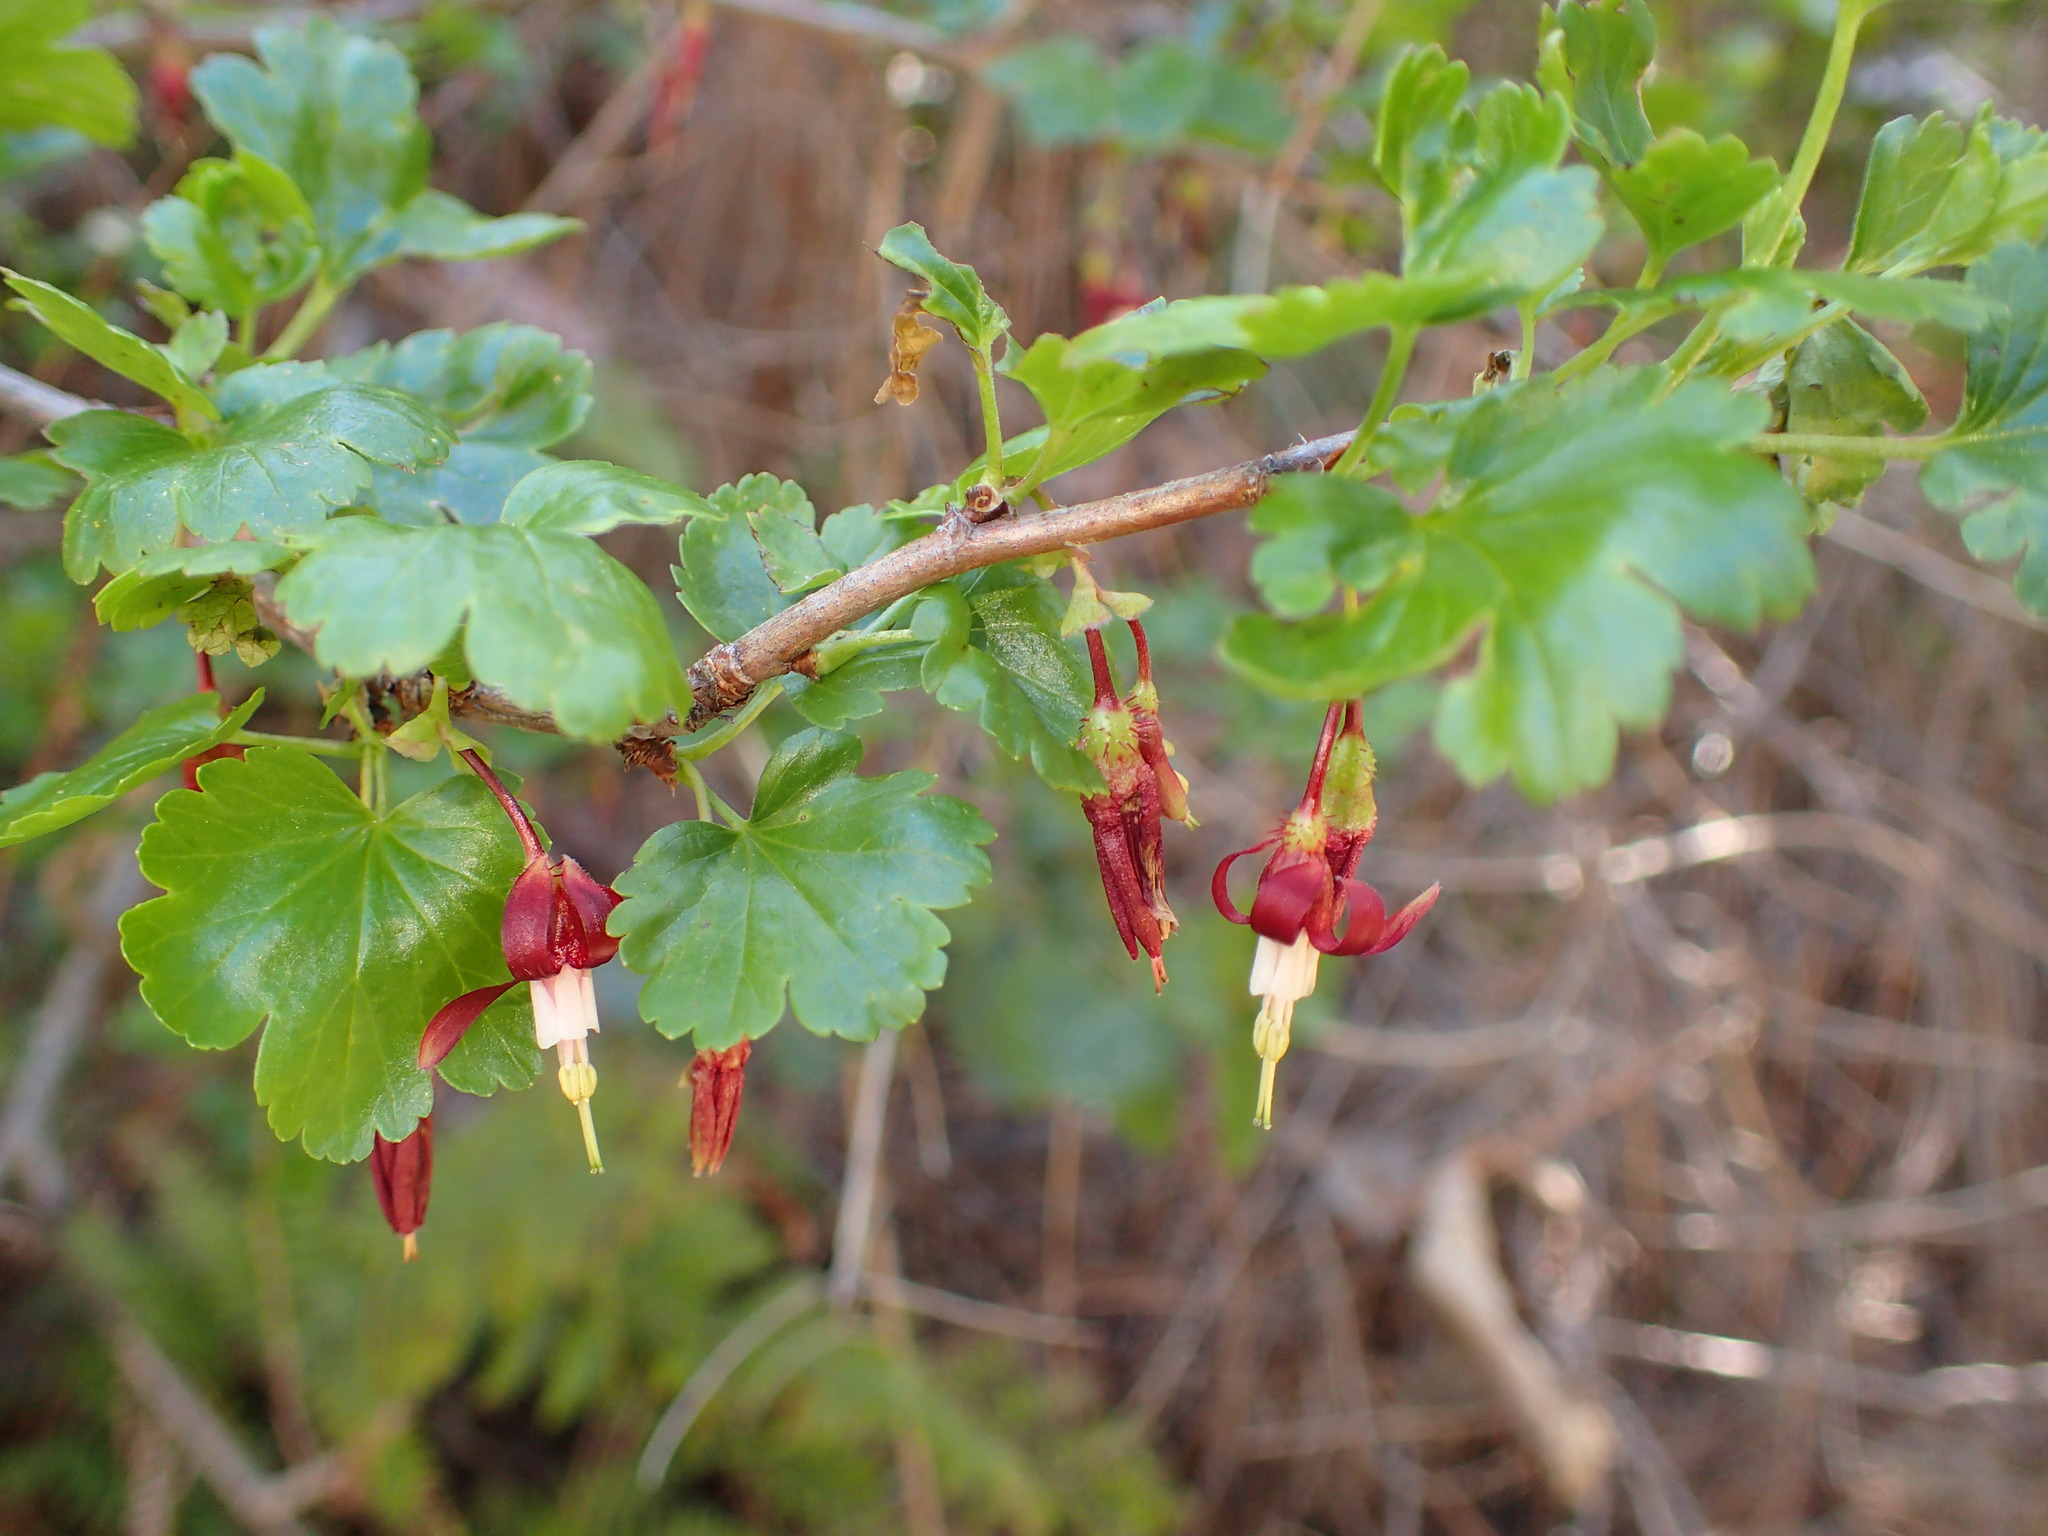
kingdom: Plantae
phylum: Tracheophyta
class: Magnoliopsida
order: Saxifragales
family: Grossulariaceae
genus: Ribes
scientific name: Ribes californicum
